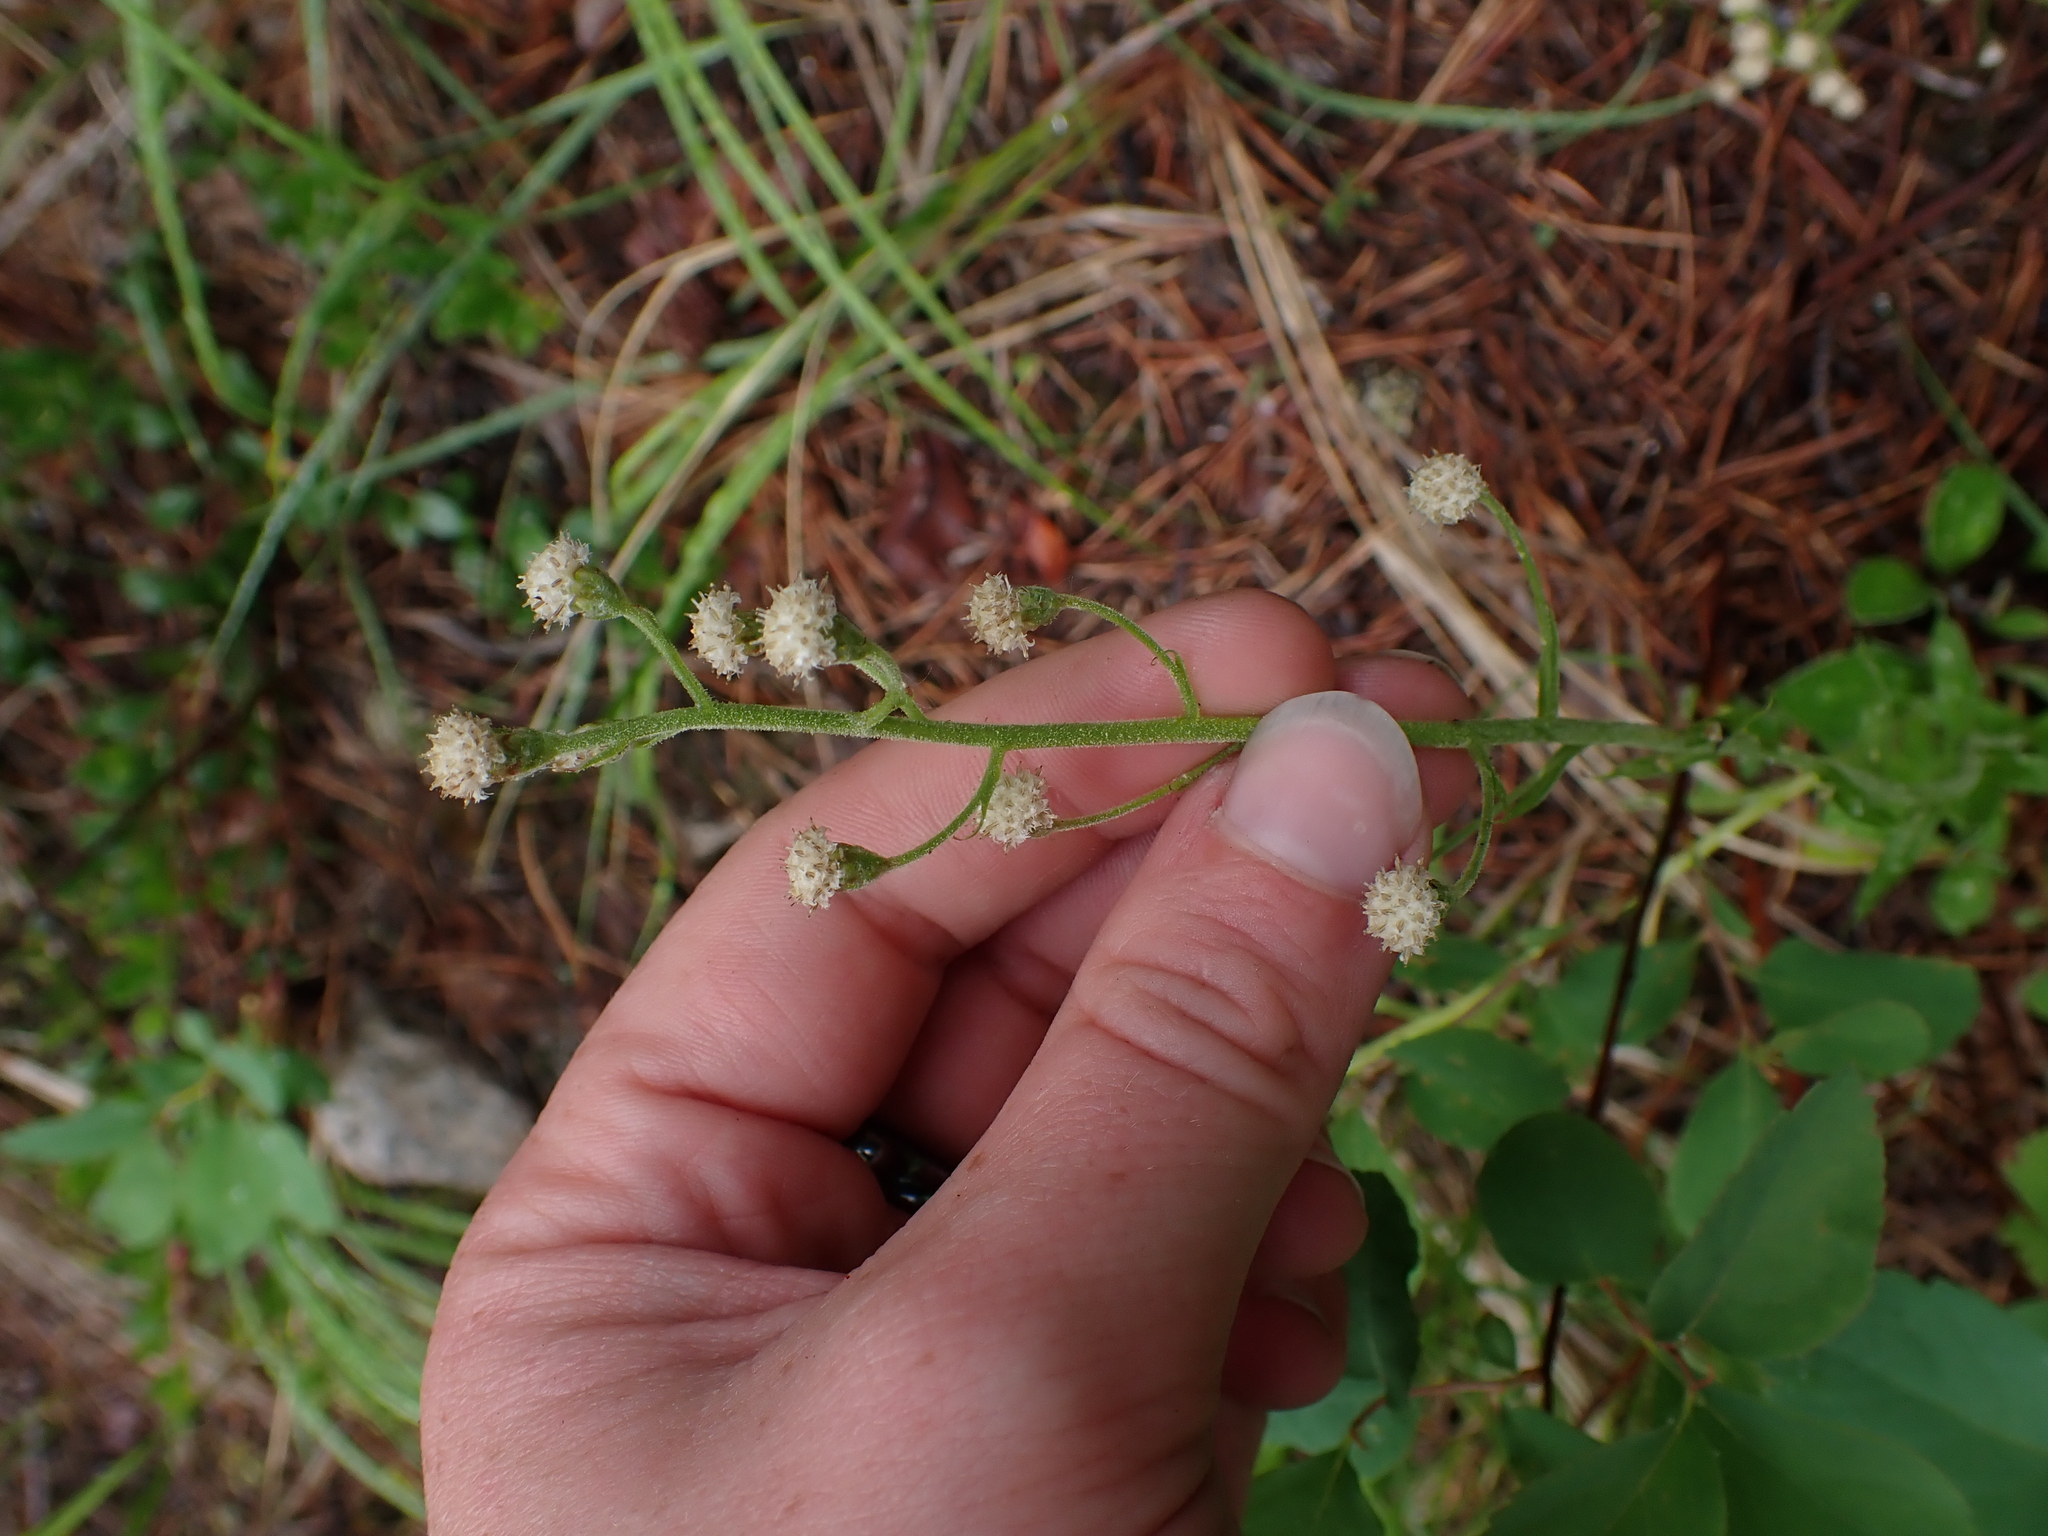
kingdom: Plantae
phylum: Tracheophyta
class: Magnoliopsida
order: Asterales
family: Asteraceae
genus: Antennaria
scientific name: Antennaria racemosa
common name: Racemose pussytoes
